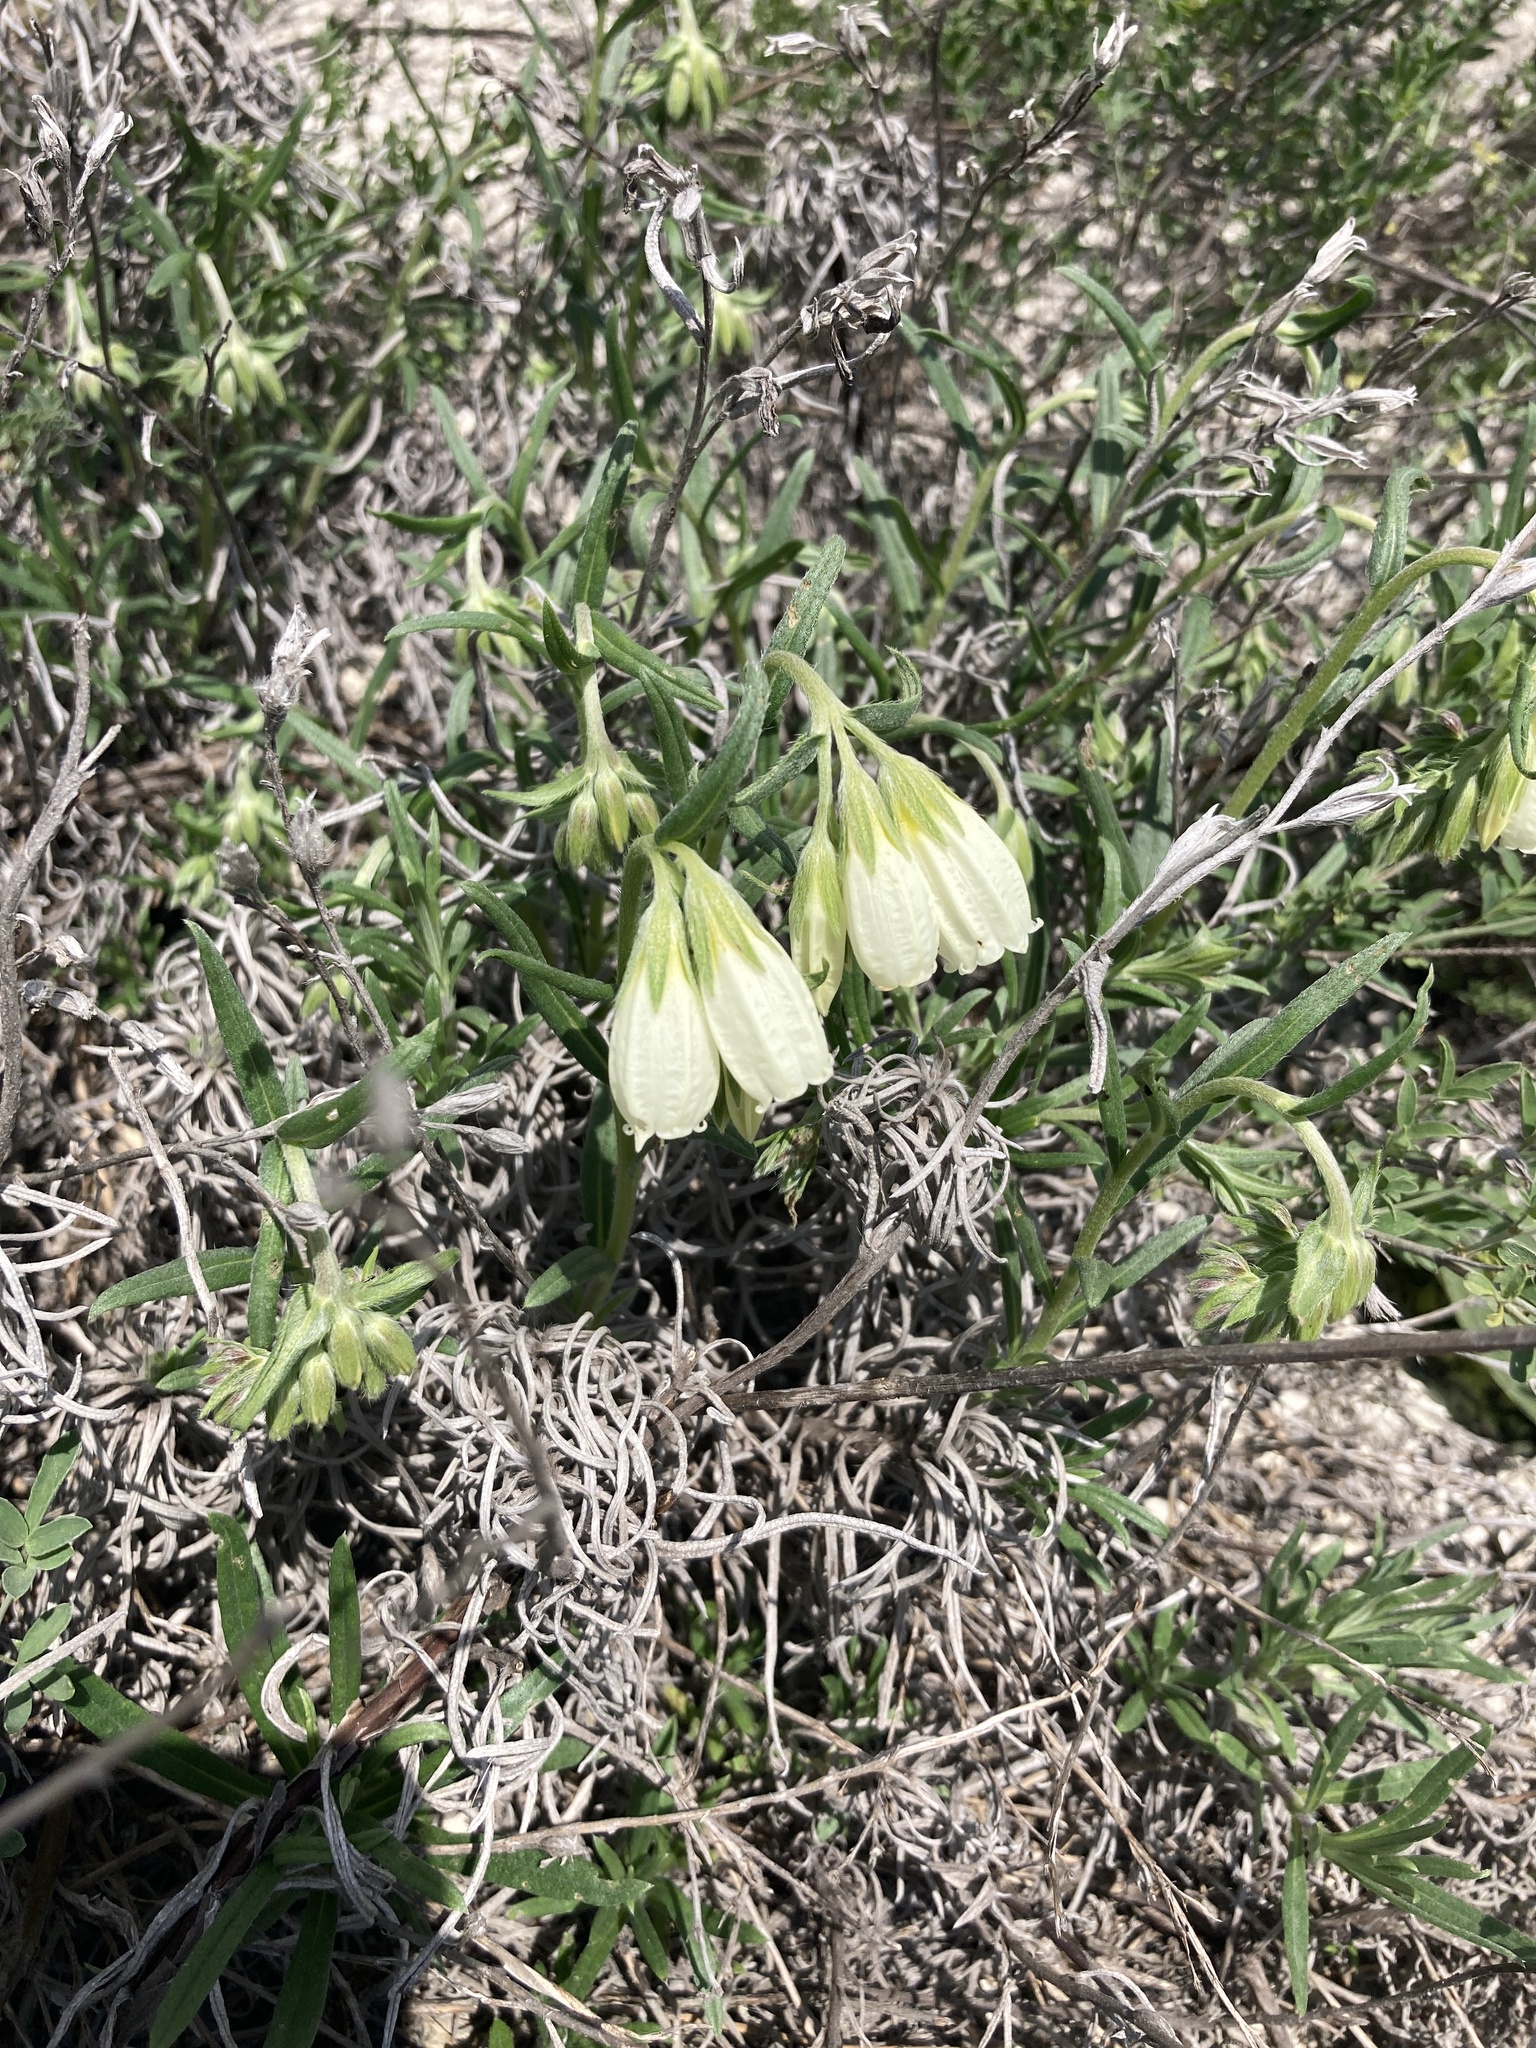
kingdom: Plantae
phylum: Tracheophyta
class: Magnoliopsida
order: Boraginales
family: Boraginaceae
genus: Onosma
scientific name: Onosma simplicissima
